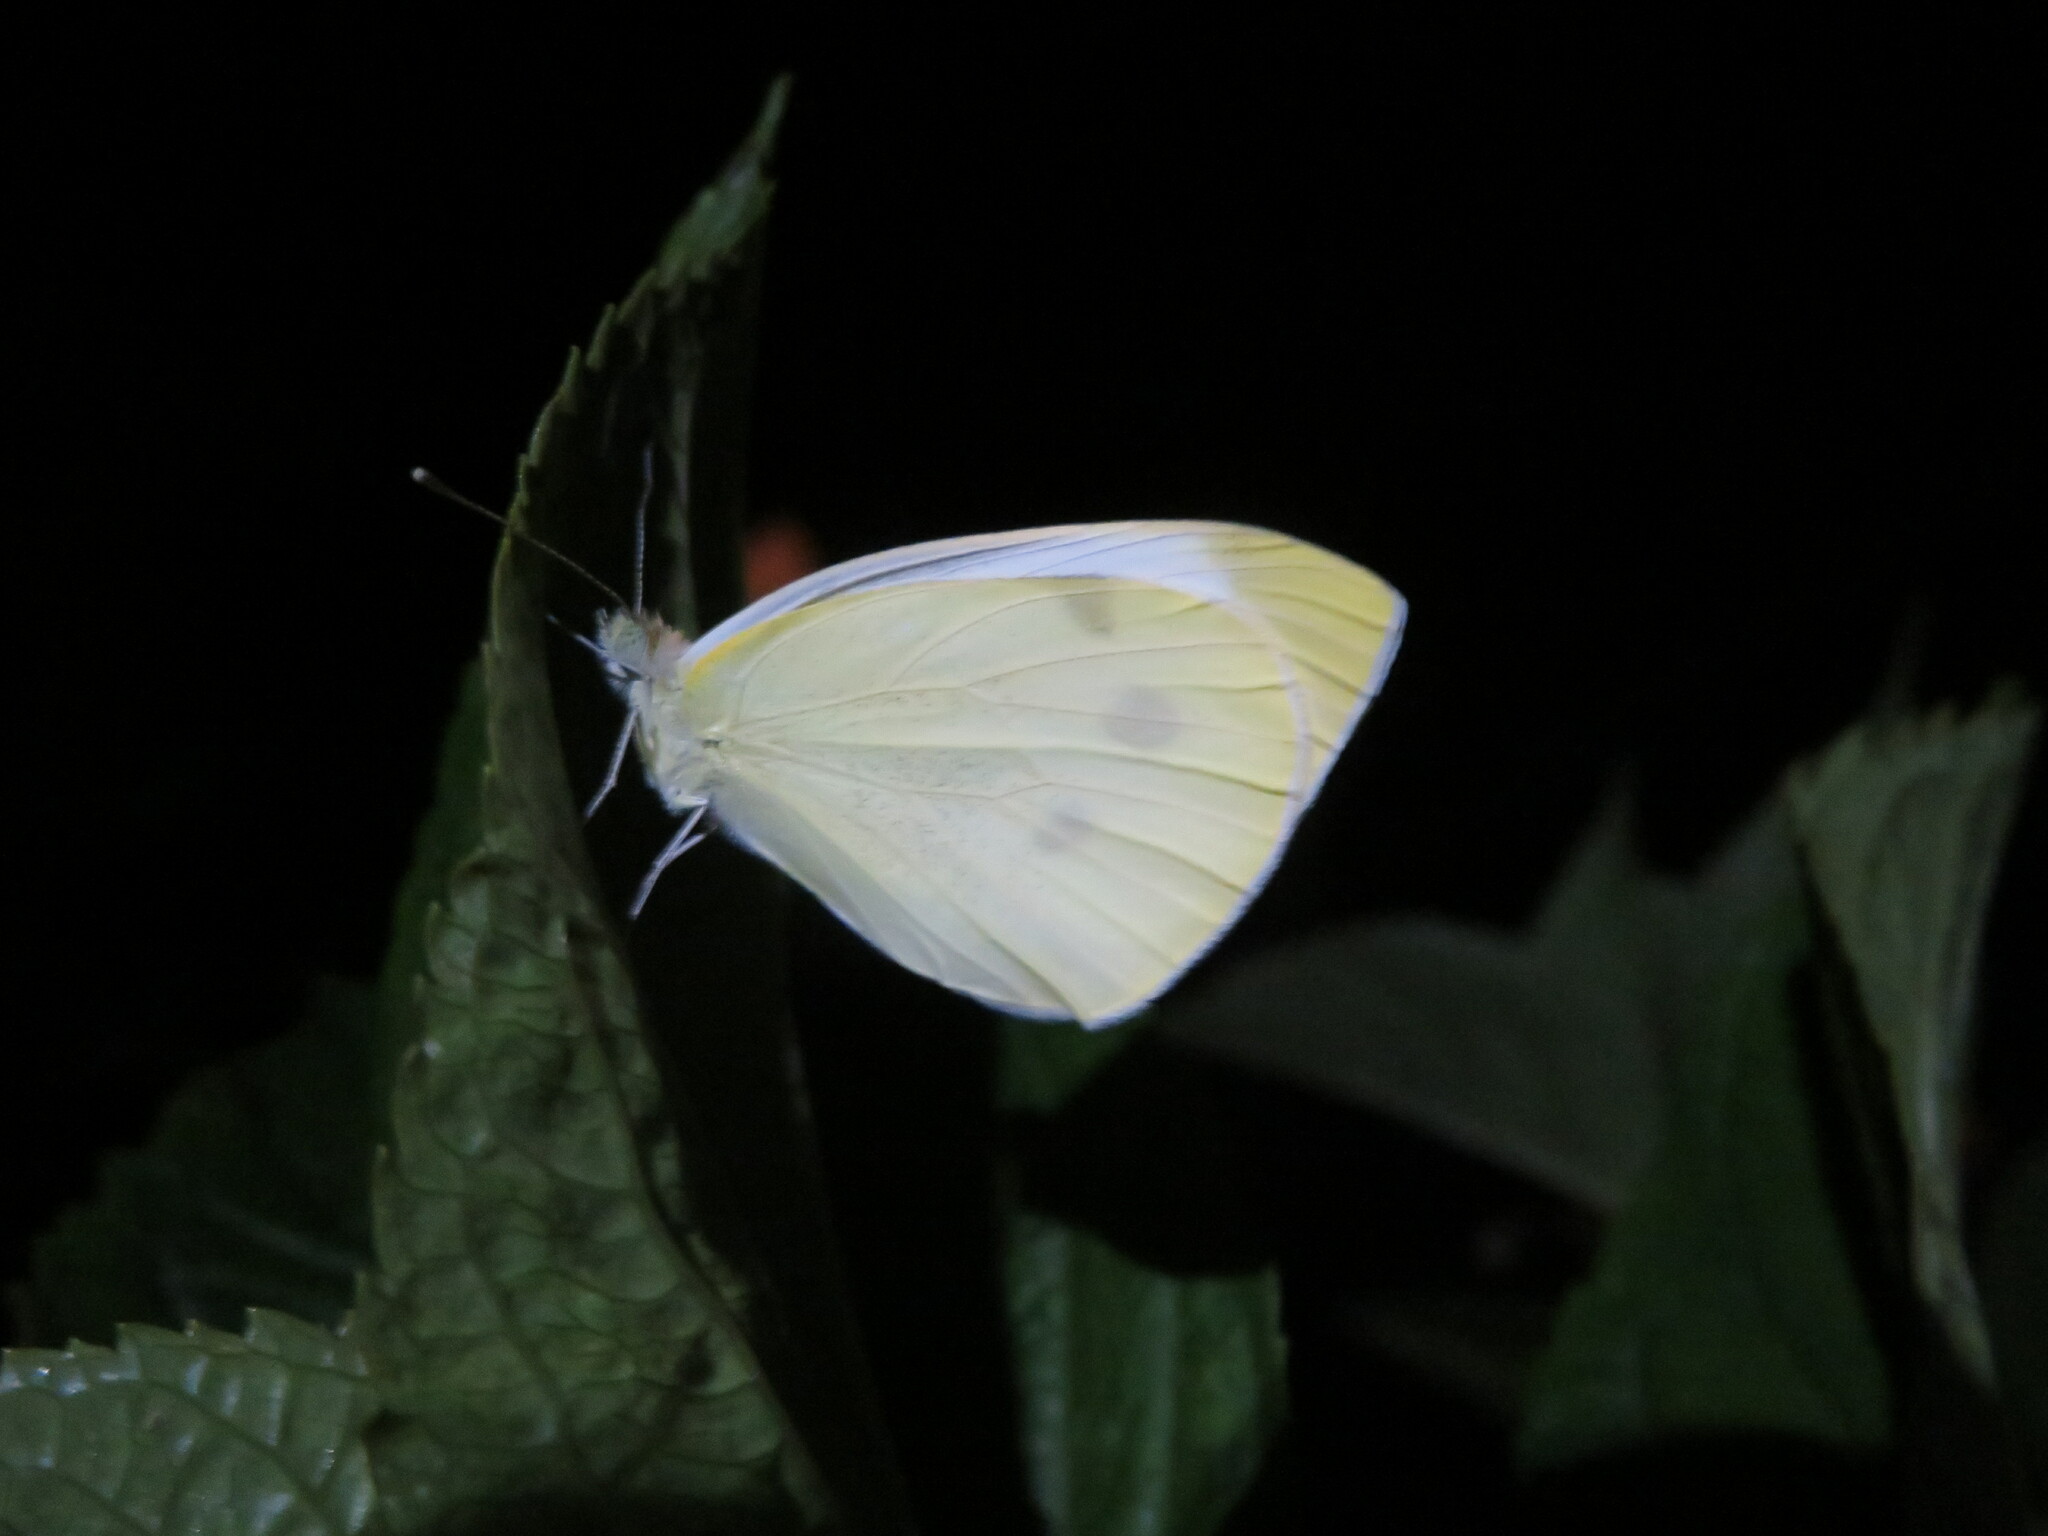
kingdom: Animalia
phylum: Arthropoda
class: Insecta
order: Lepidoptera
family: Pieridae
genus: Pieris
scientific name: Pieris rapae
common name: Small white
